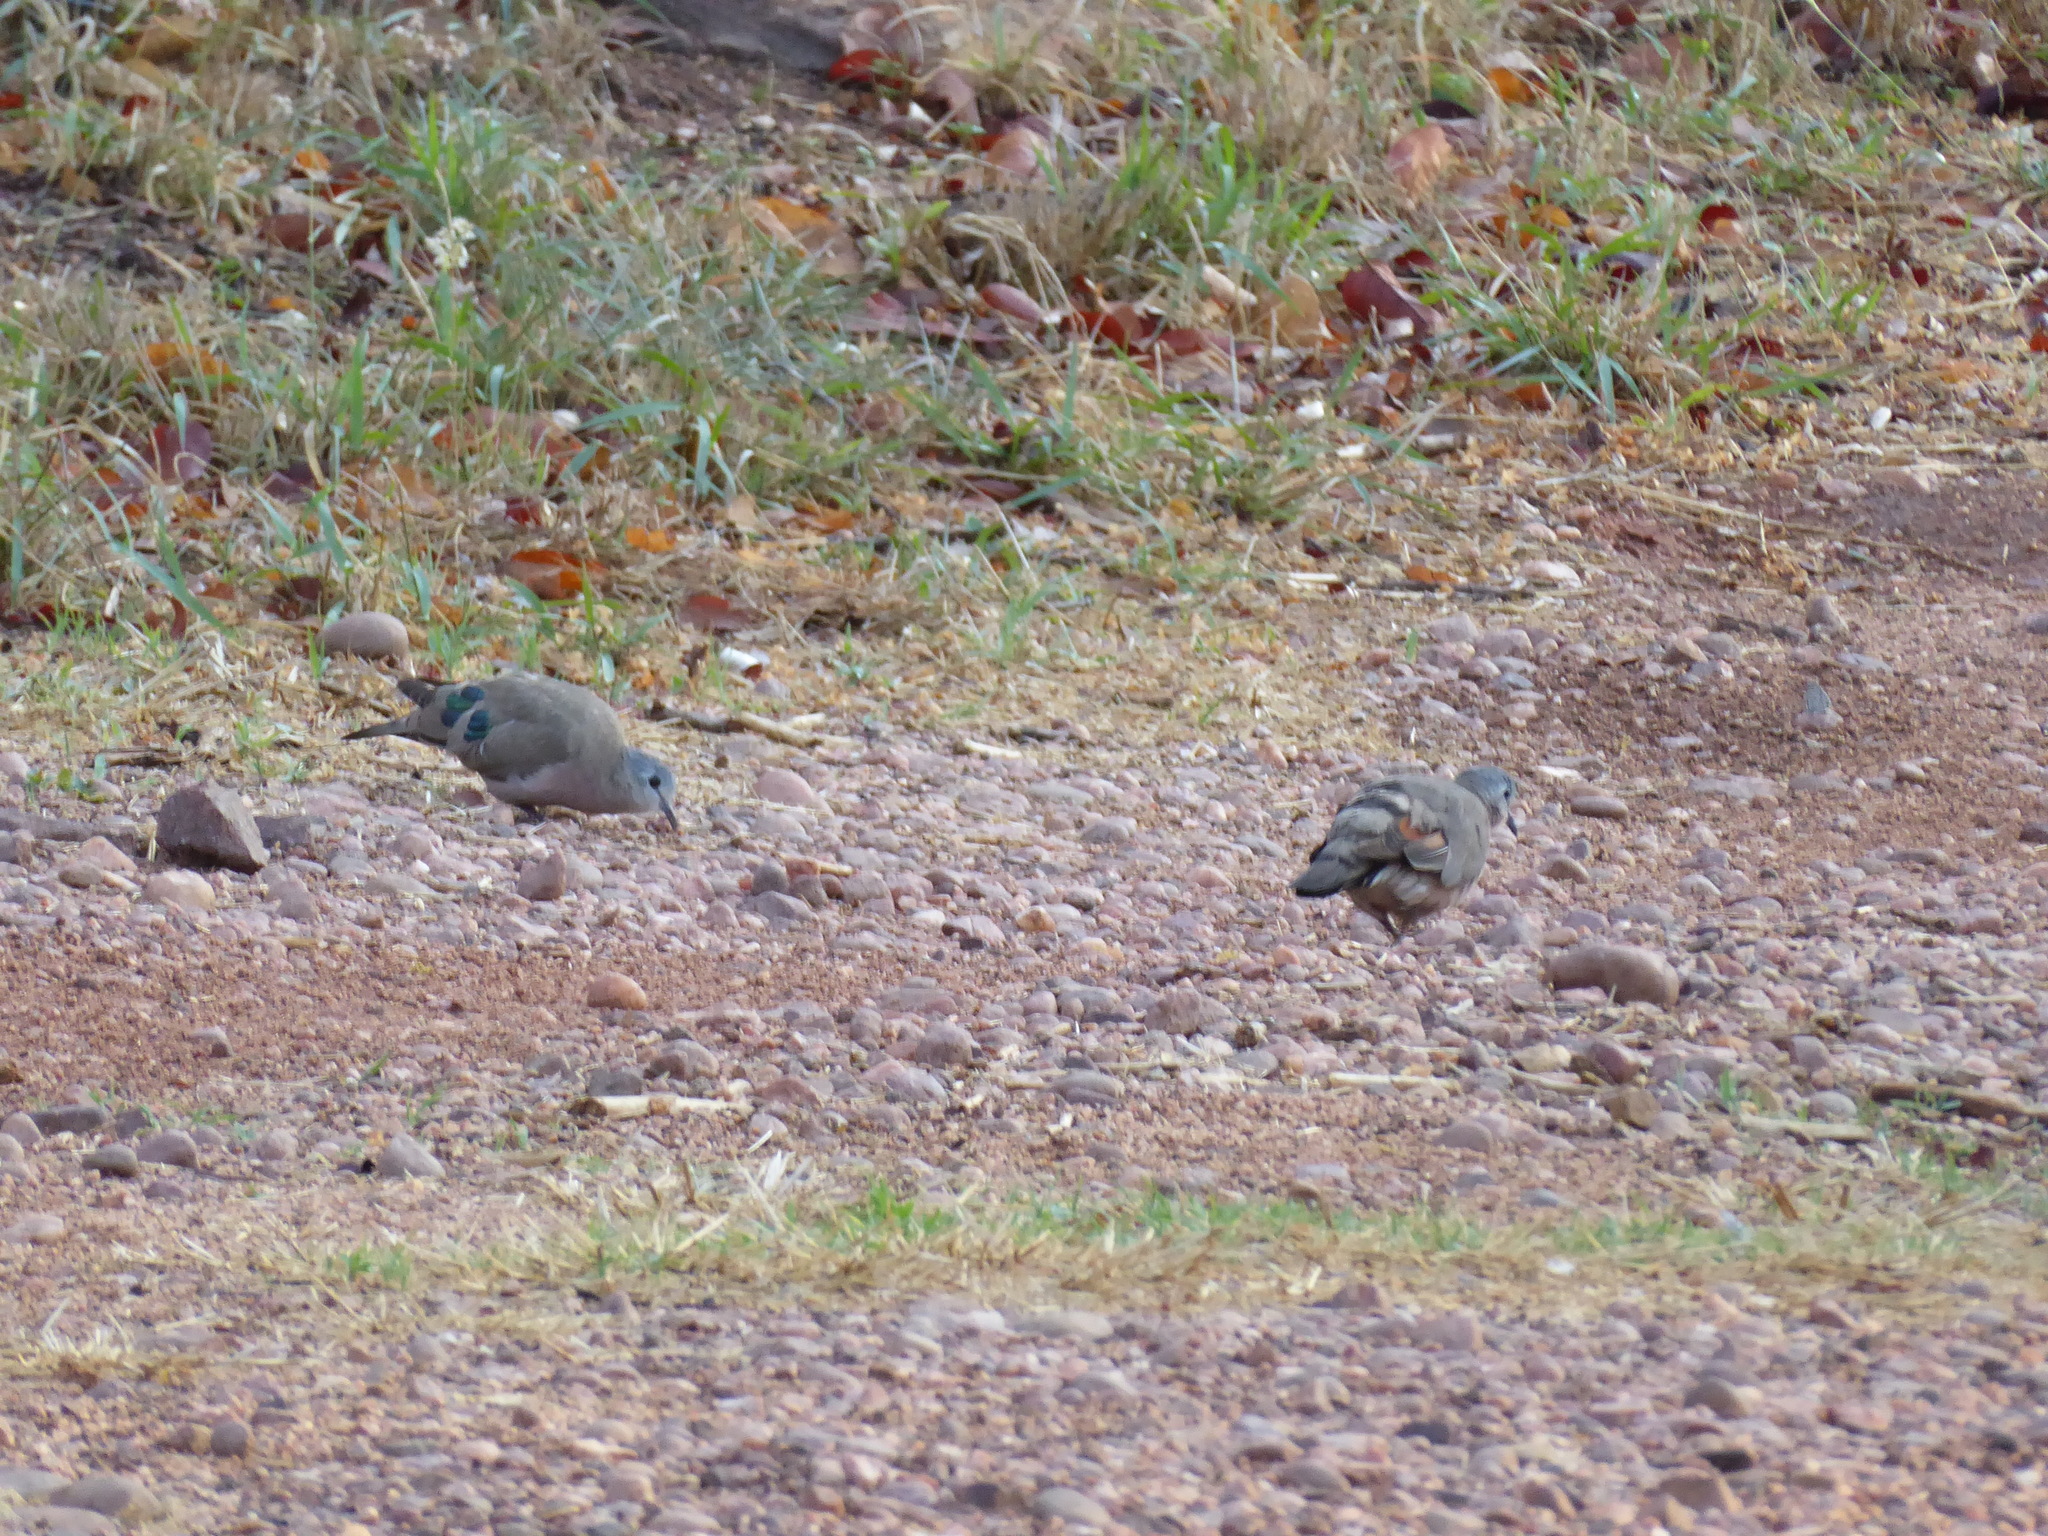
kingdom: Animalia
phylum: Chordata
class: Aves
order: Columbiformes
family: Columbidae
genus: Turtur
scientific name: Turtur chalcospilos
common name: Emerald-spotted wood dove
